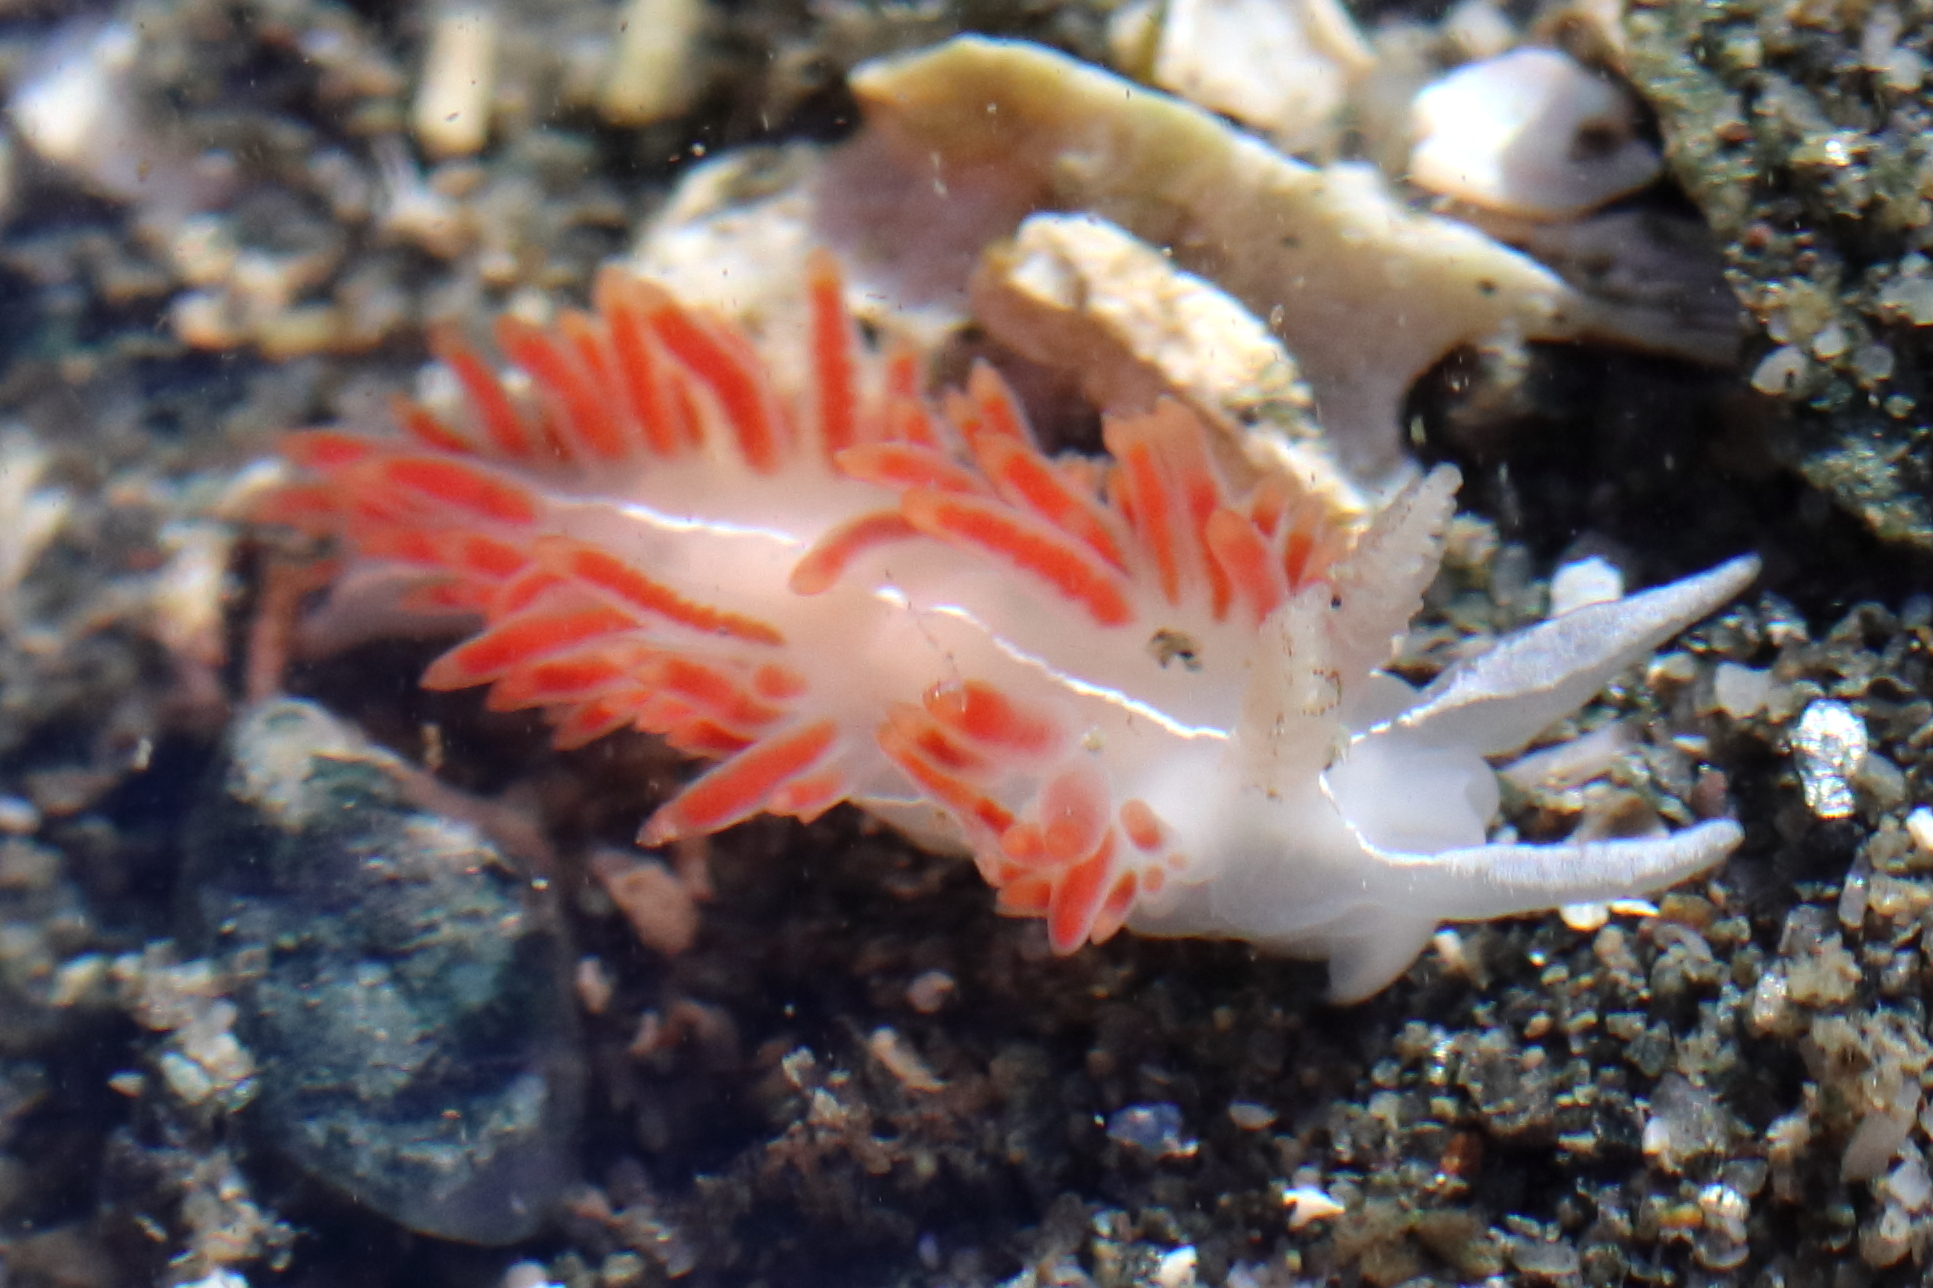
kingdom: Animalia
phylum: Mollusca
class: Gastropoda
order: Nudibranchia
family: Coryphellidae
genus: Coryphella
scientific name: Coryphella trilineata
